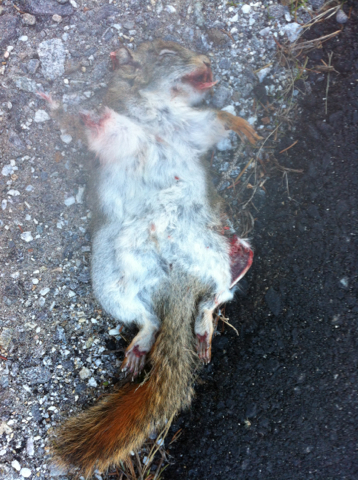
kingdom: Animalia
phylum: Chordata
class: Mammalia
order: Rodentia
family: Sciuridae
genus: Tamiasciurus
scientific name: Tamiasciurus hudsonicus
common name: Red squirrel
